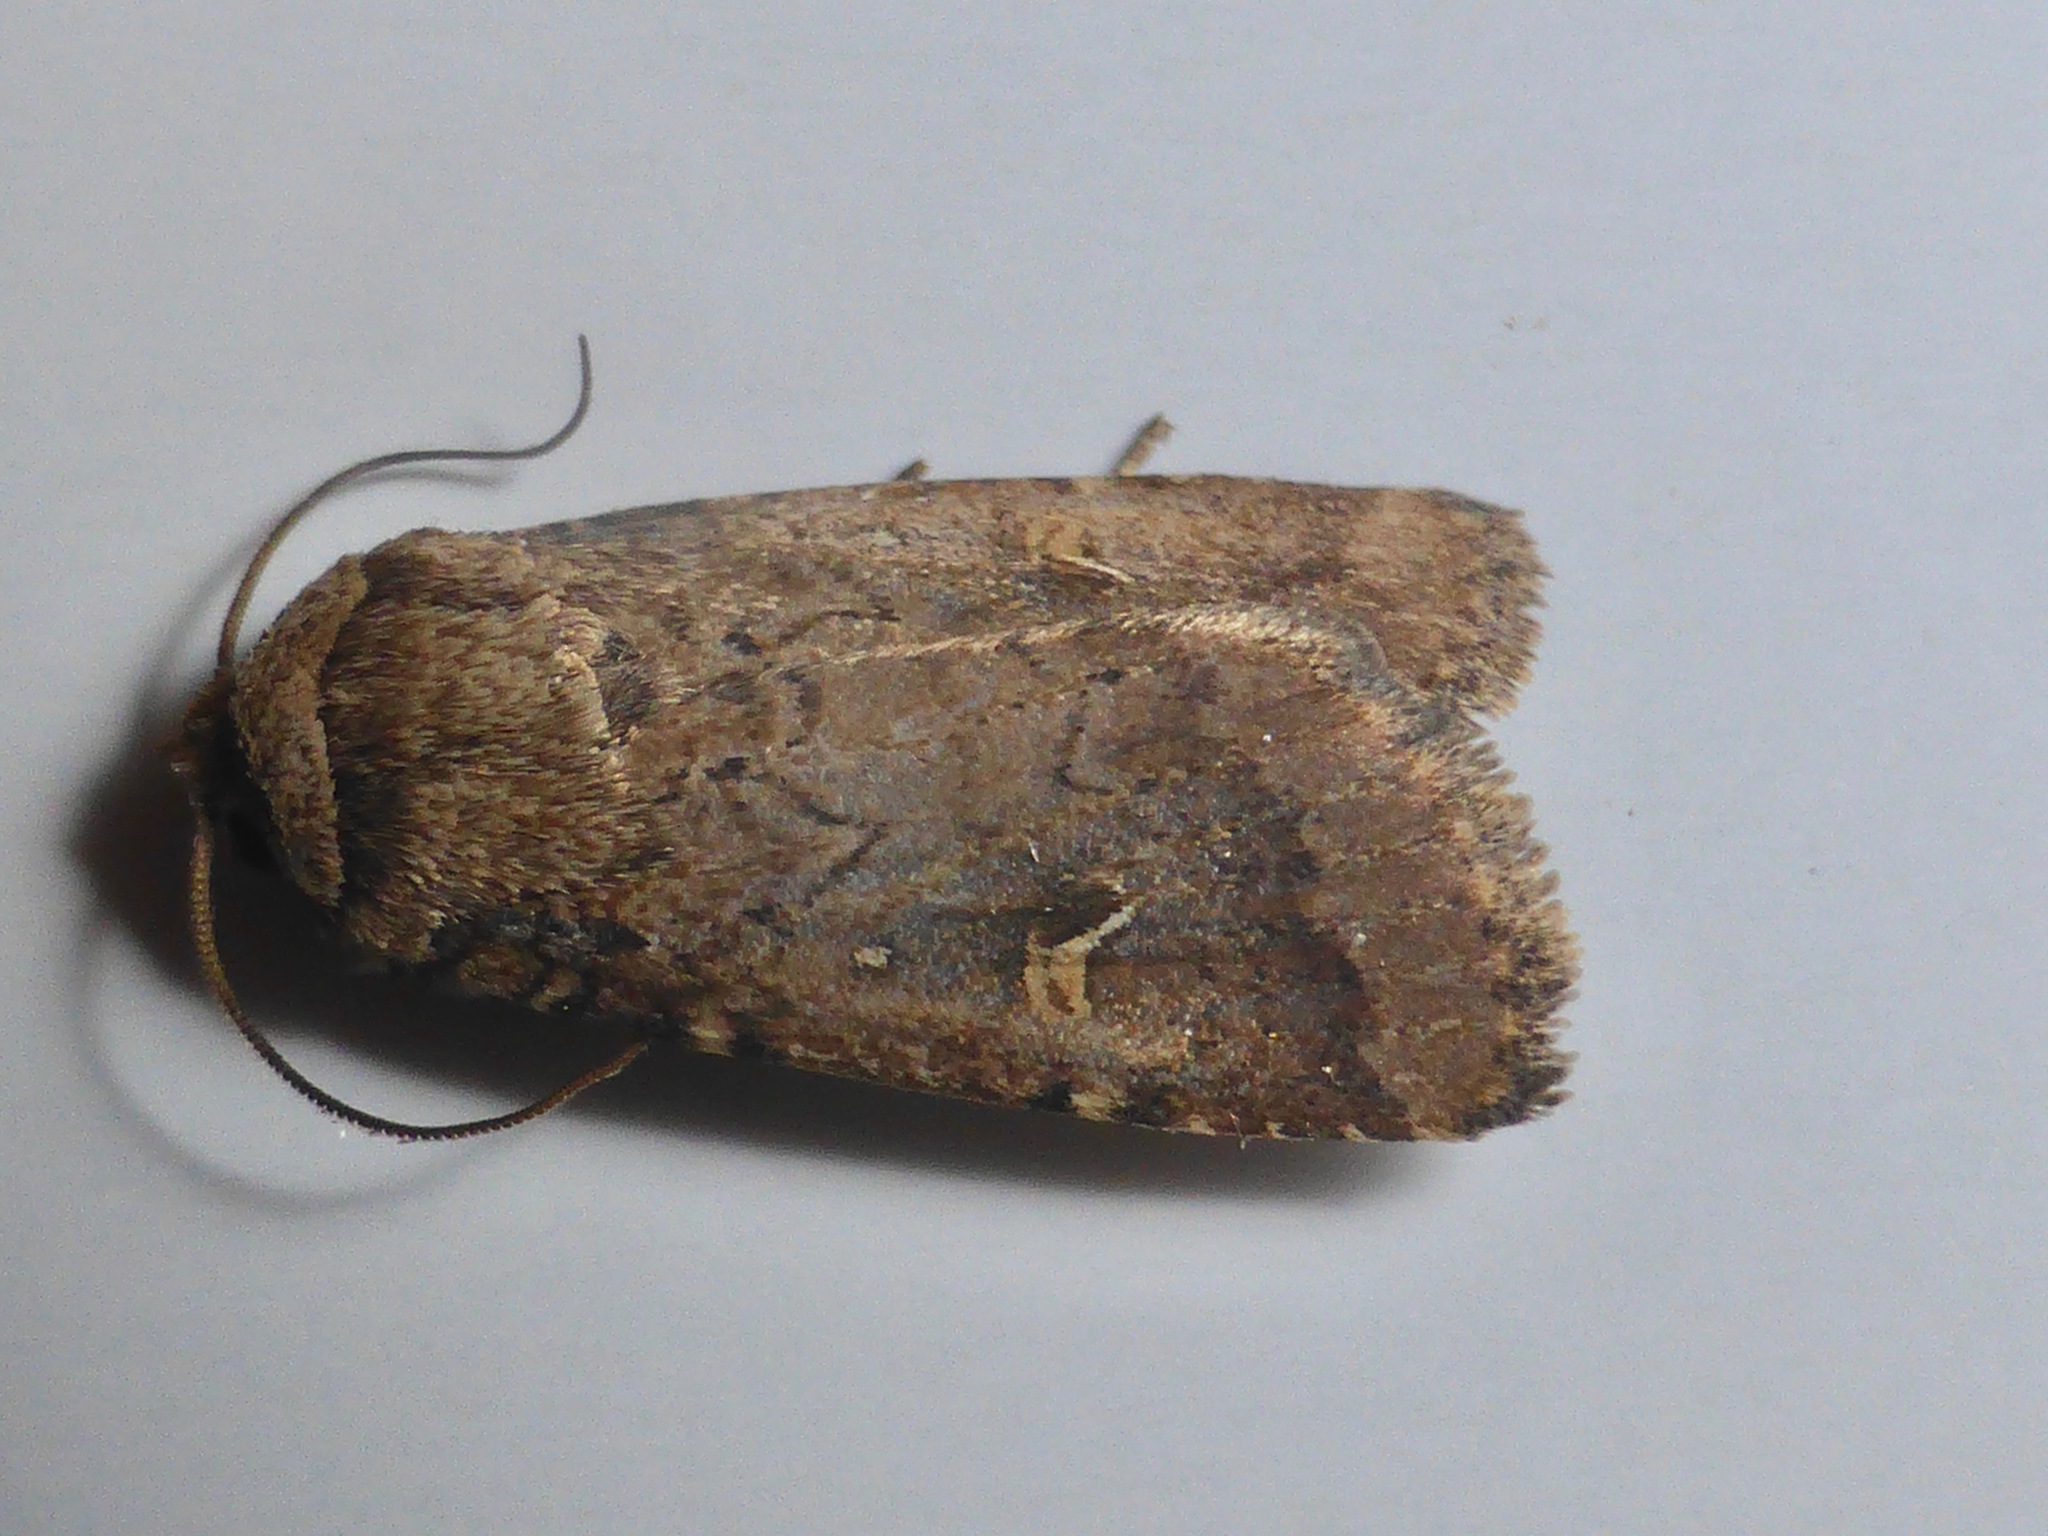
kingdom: Animalia
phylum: Arthropoda
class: Insecta
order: Lepidoptera
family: Noctuidae
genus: Proteuxoa
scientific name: Proteuxoa tetronycha
